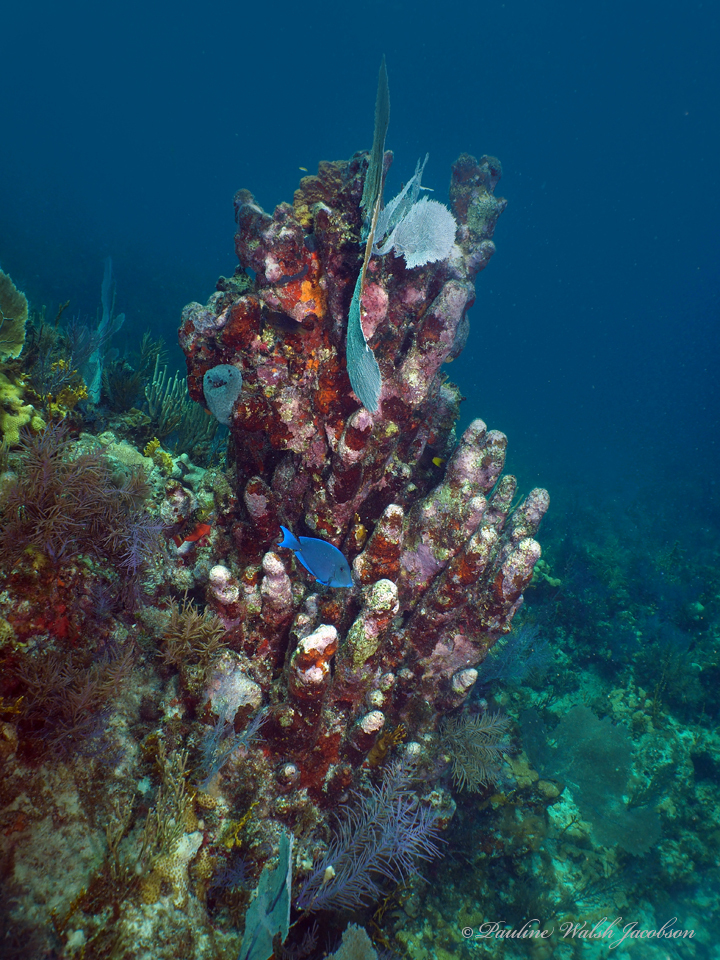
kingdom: Animalia
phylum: Chordata
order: Perciformes
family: Acanthuridae
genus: Acanthurus
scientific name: Acanthurus coeruleus
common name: Blue tang
